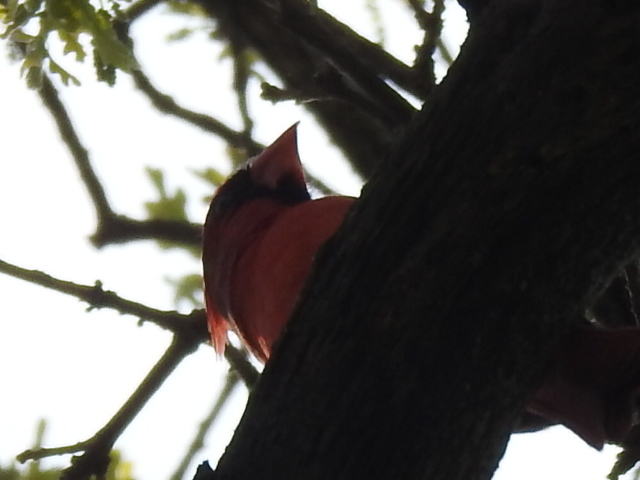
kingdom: Animalia
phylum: Chordata
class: Aves
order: Passeriformes
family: Cardinalidae
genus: Cardinalis
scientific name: Cardinalis cardinalis
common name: Northern cardinal
